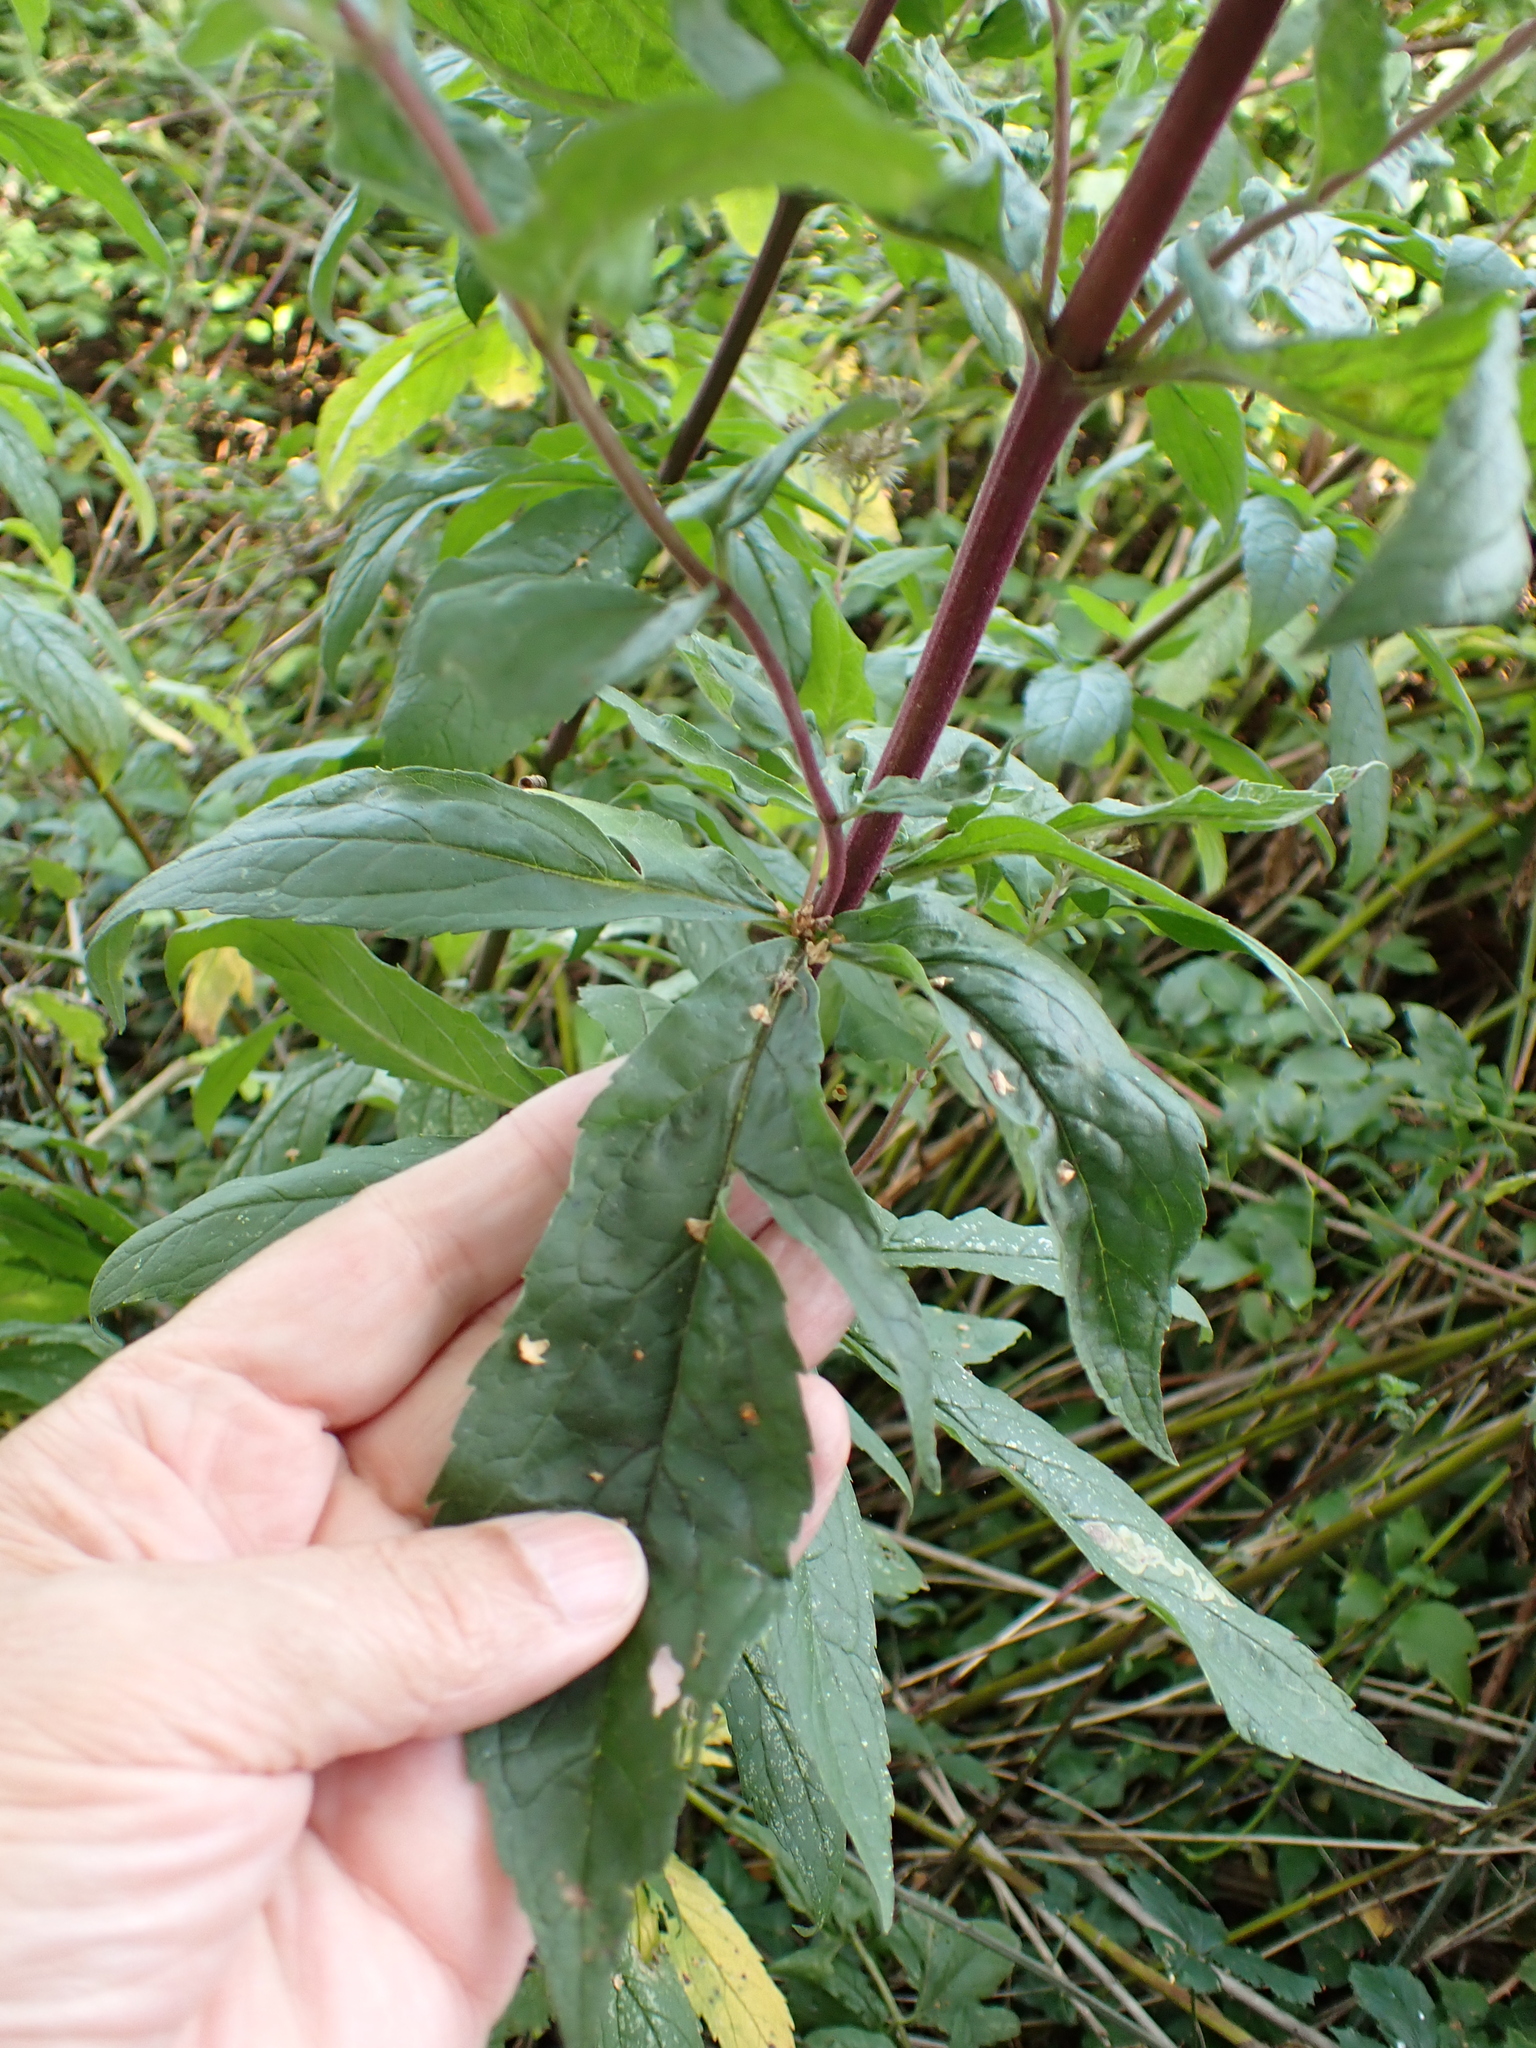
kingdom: Plantae
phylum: Tracheophyta
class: Magnoliopsida
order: Asterales
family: Asteraceae
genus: Eupatorium
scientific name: Eupatorium cannabinum
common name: Hemp-agrimony
